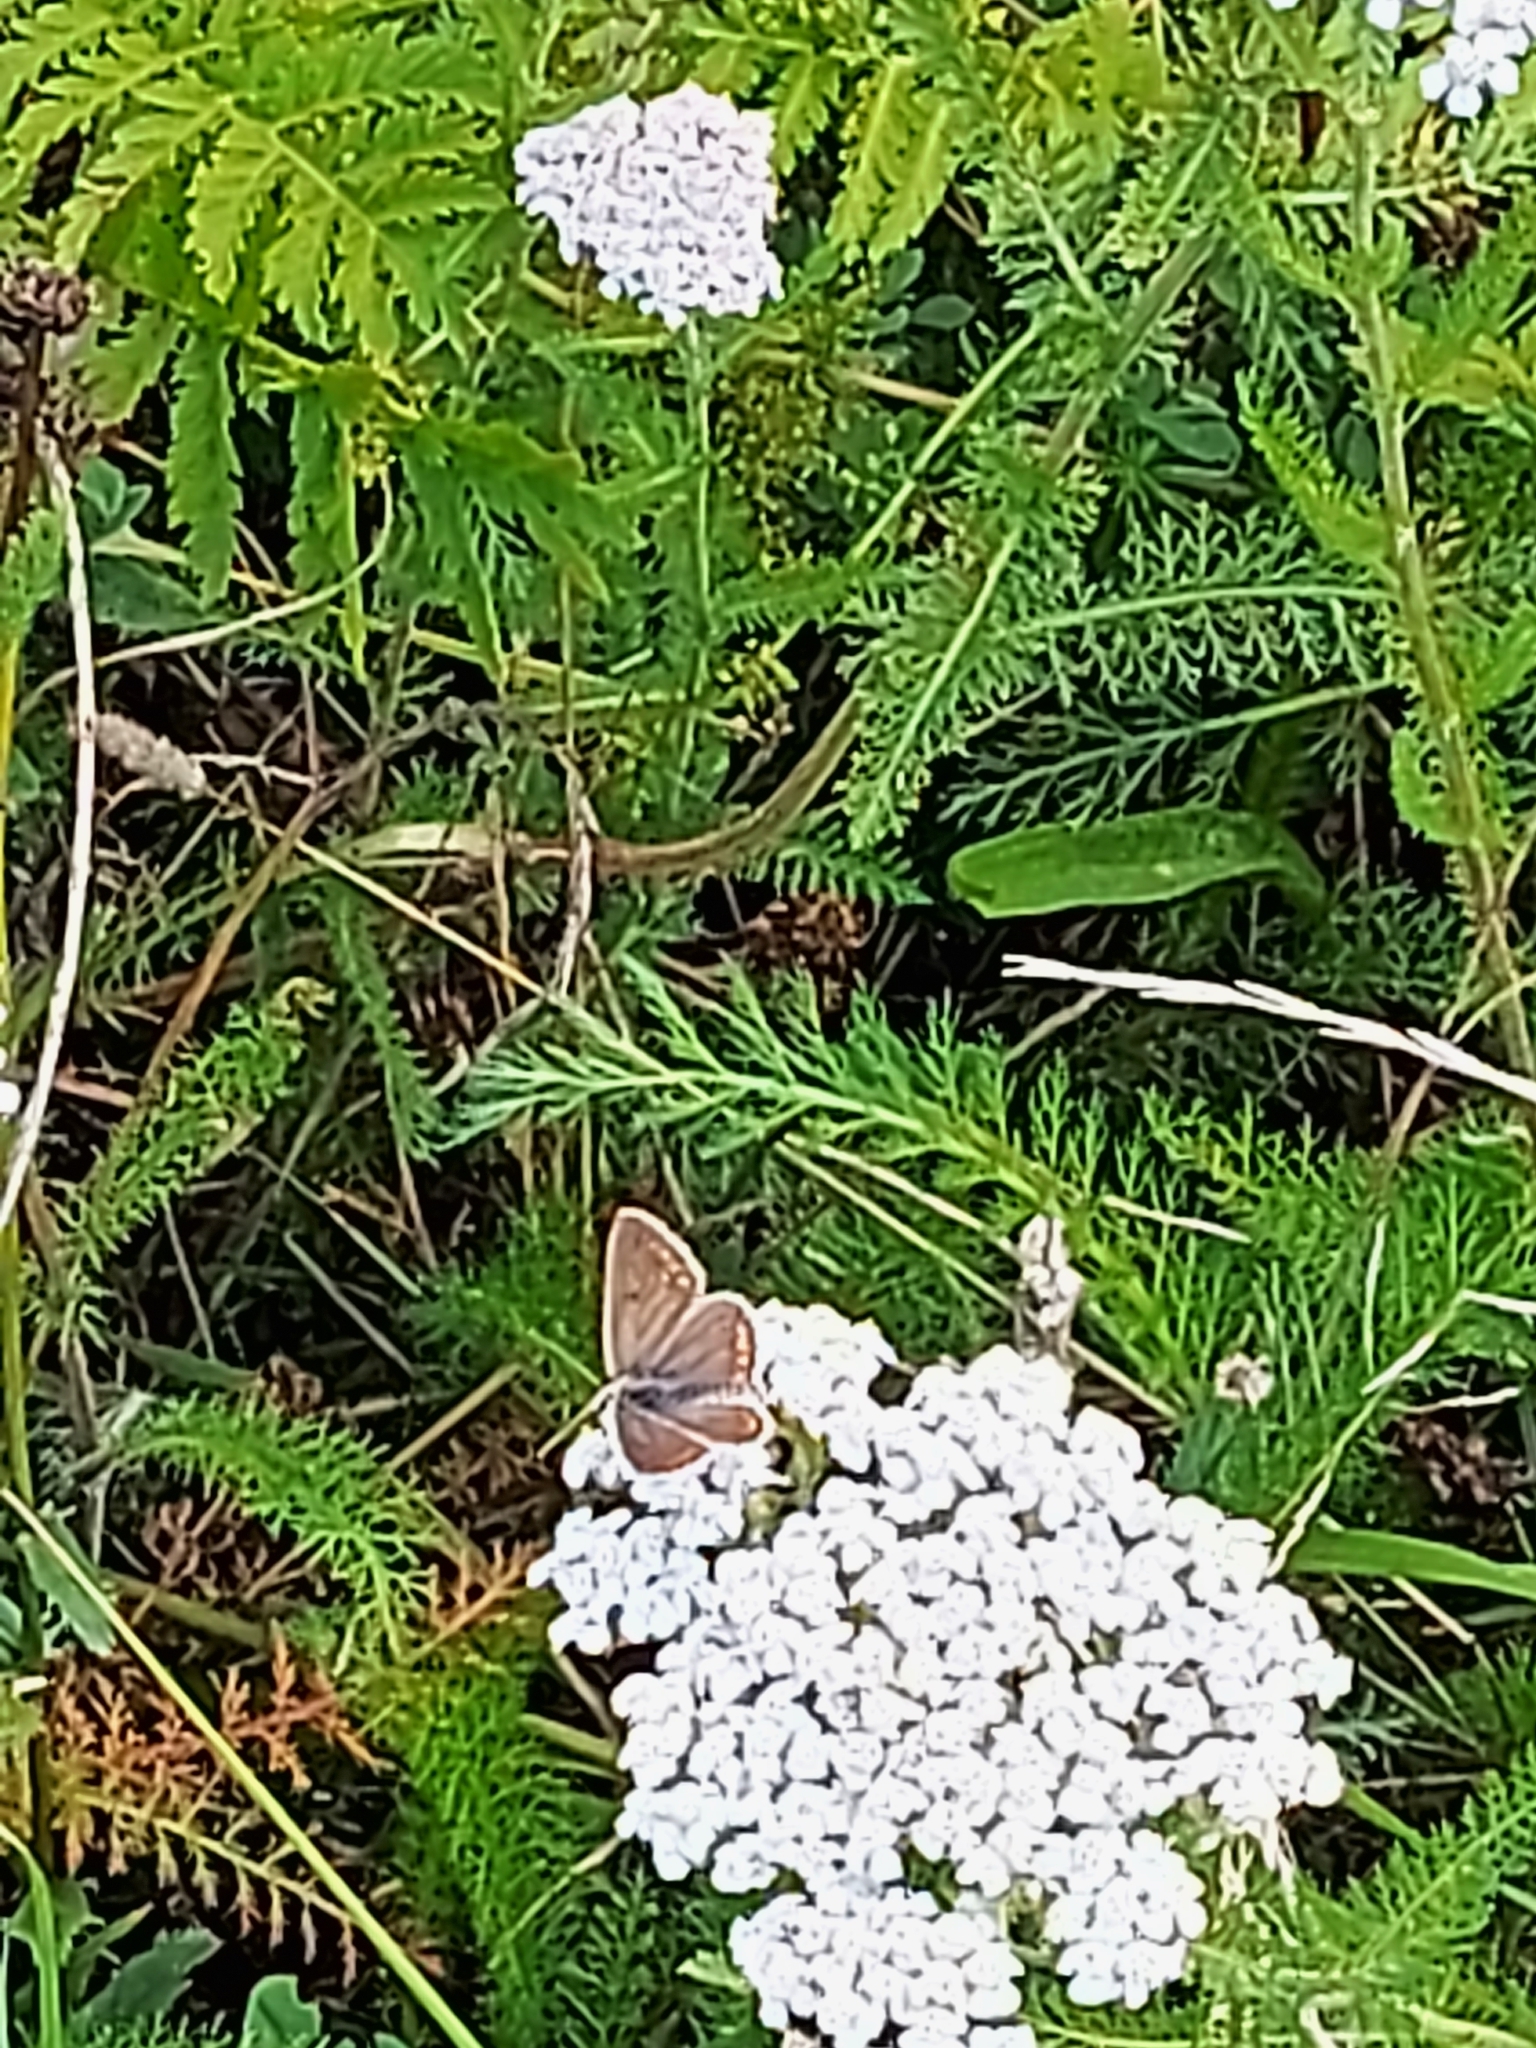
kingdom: Animalia
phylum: Arthropoda
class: Insecta
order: Lepidoptera
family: Lycaenidae
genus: Aricia
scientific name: Aricia agestis
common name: Brown argus
